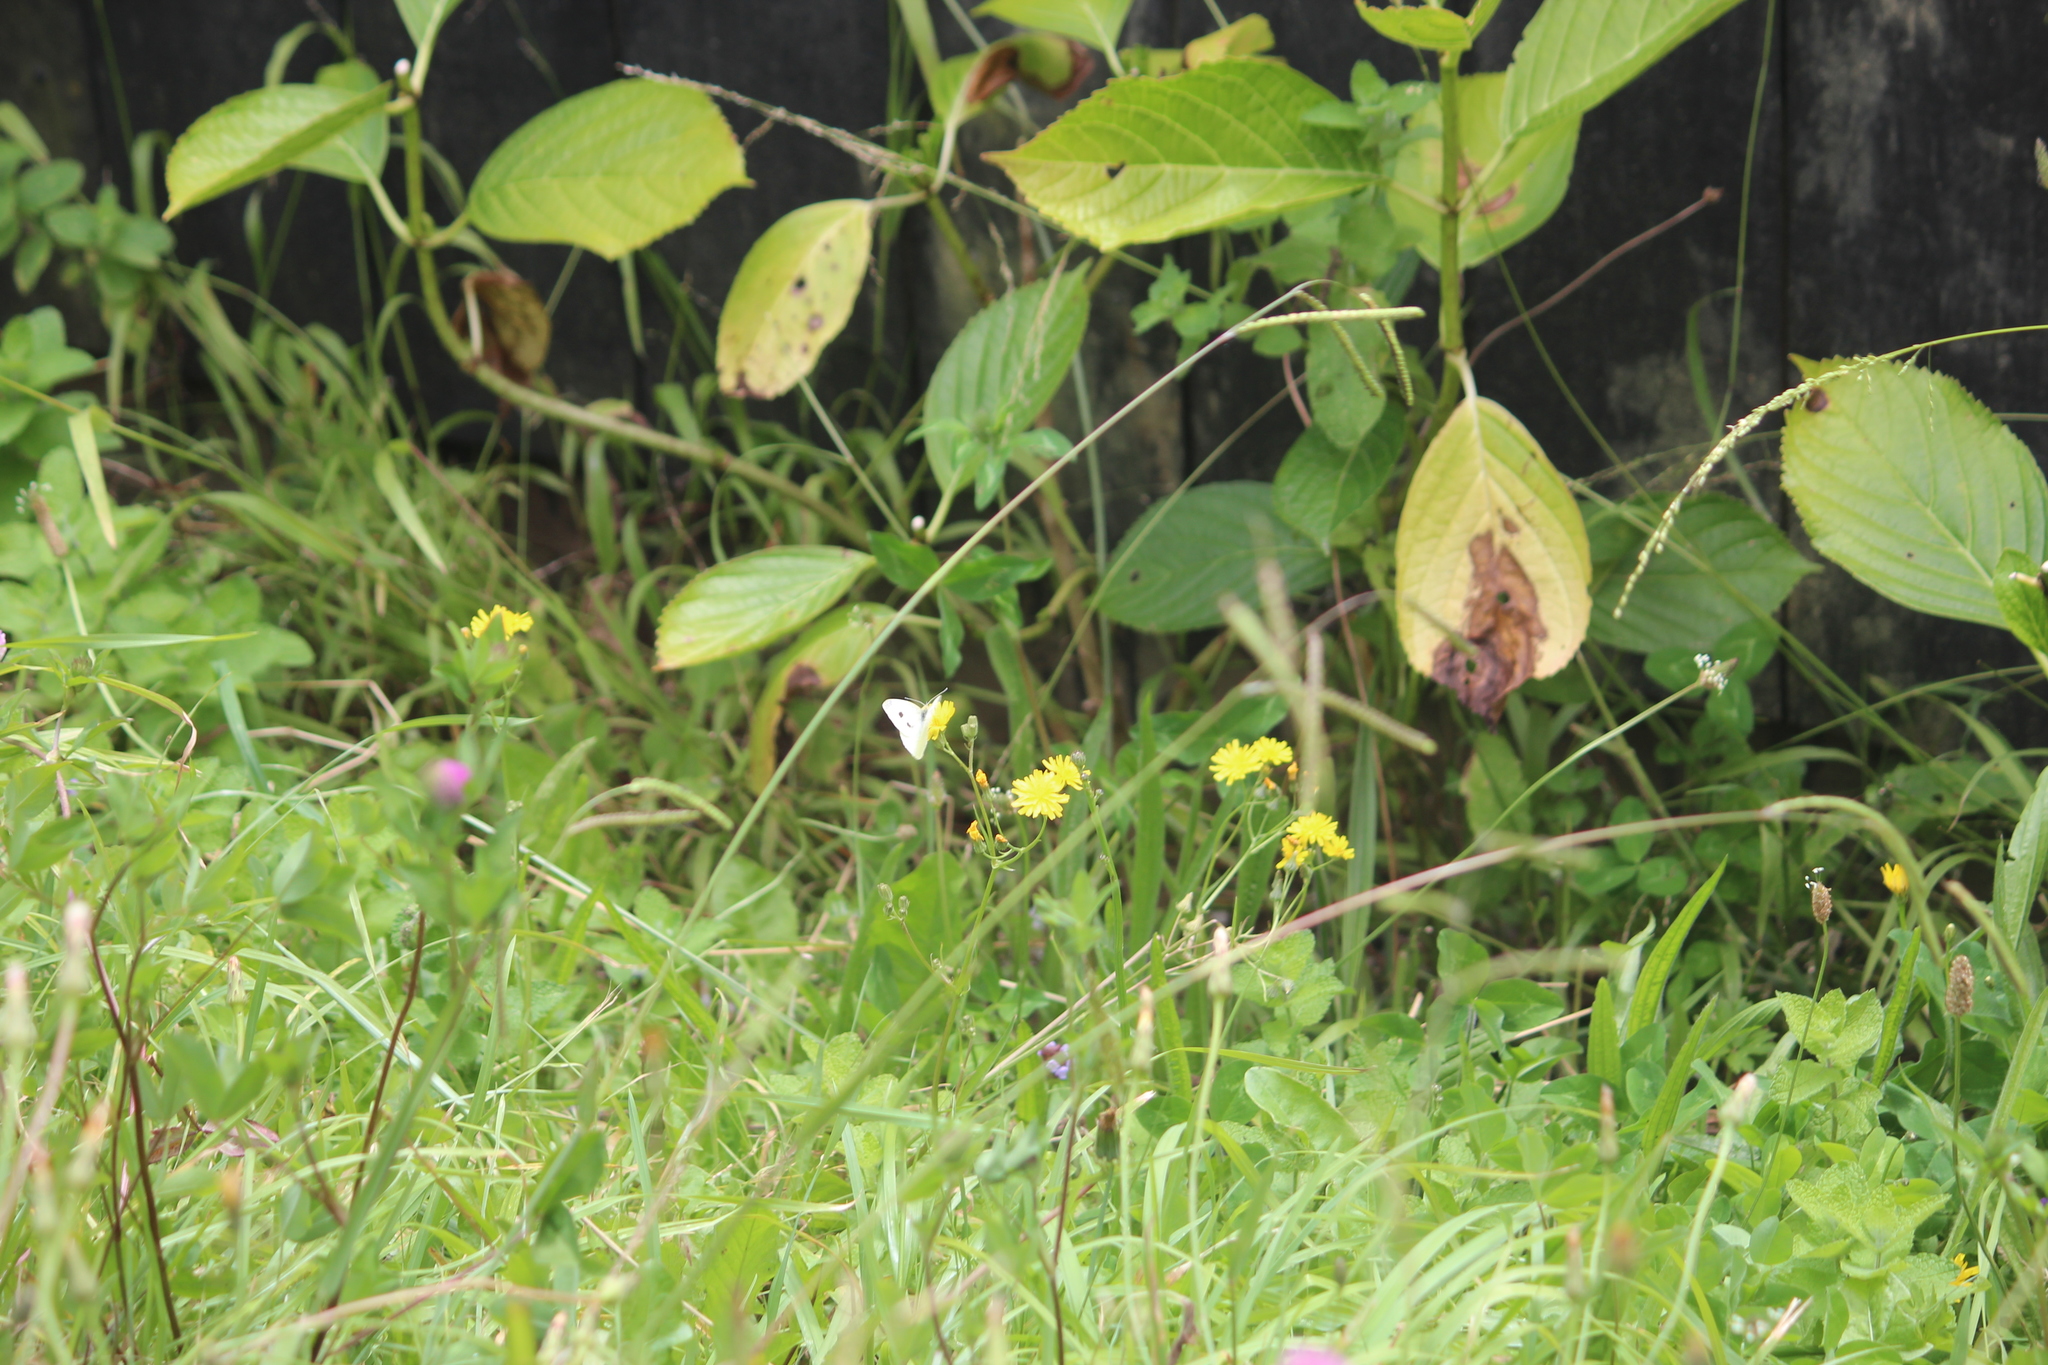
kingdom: Animalia
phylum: Arthropoda
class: Insecta
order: Lepidoptera
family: Pieridae
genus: Pieris
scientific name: Pieris rapae
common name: Small white
